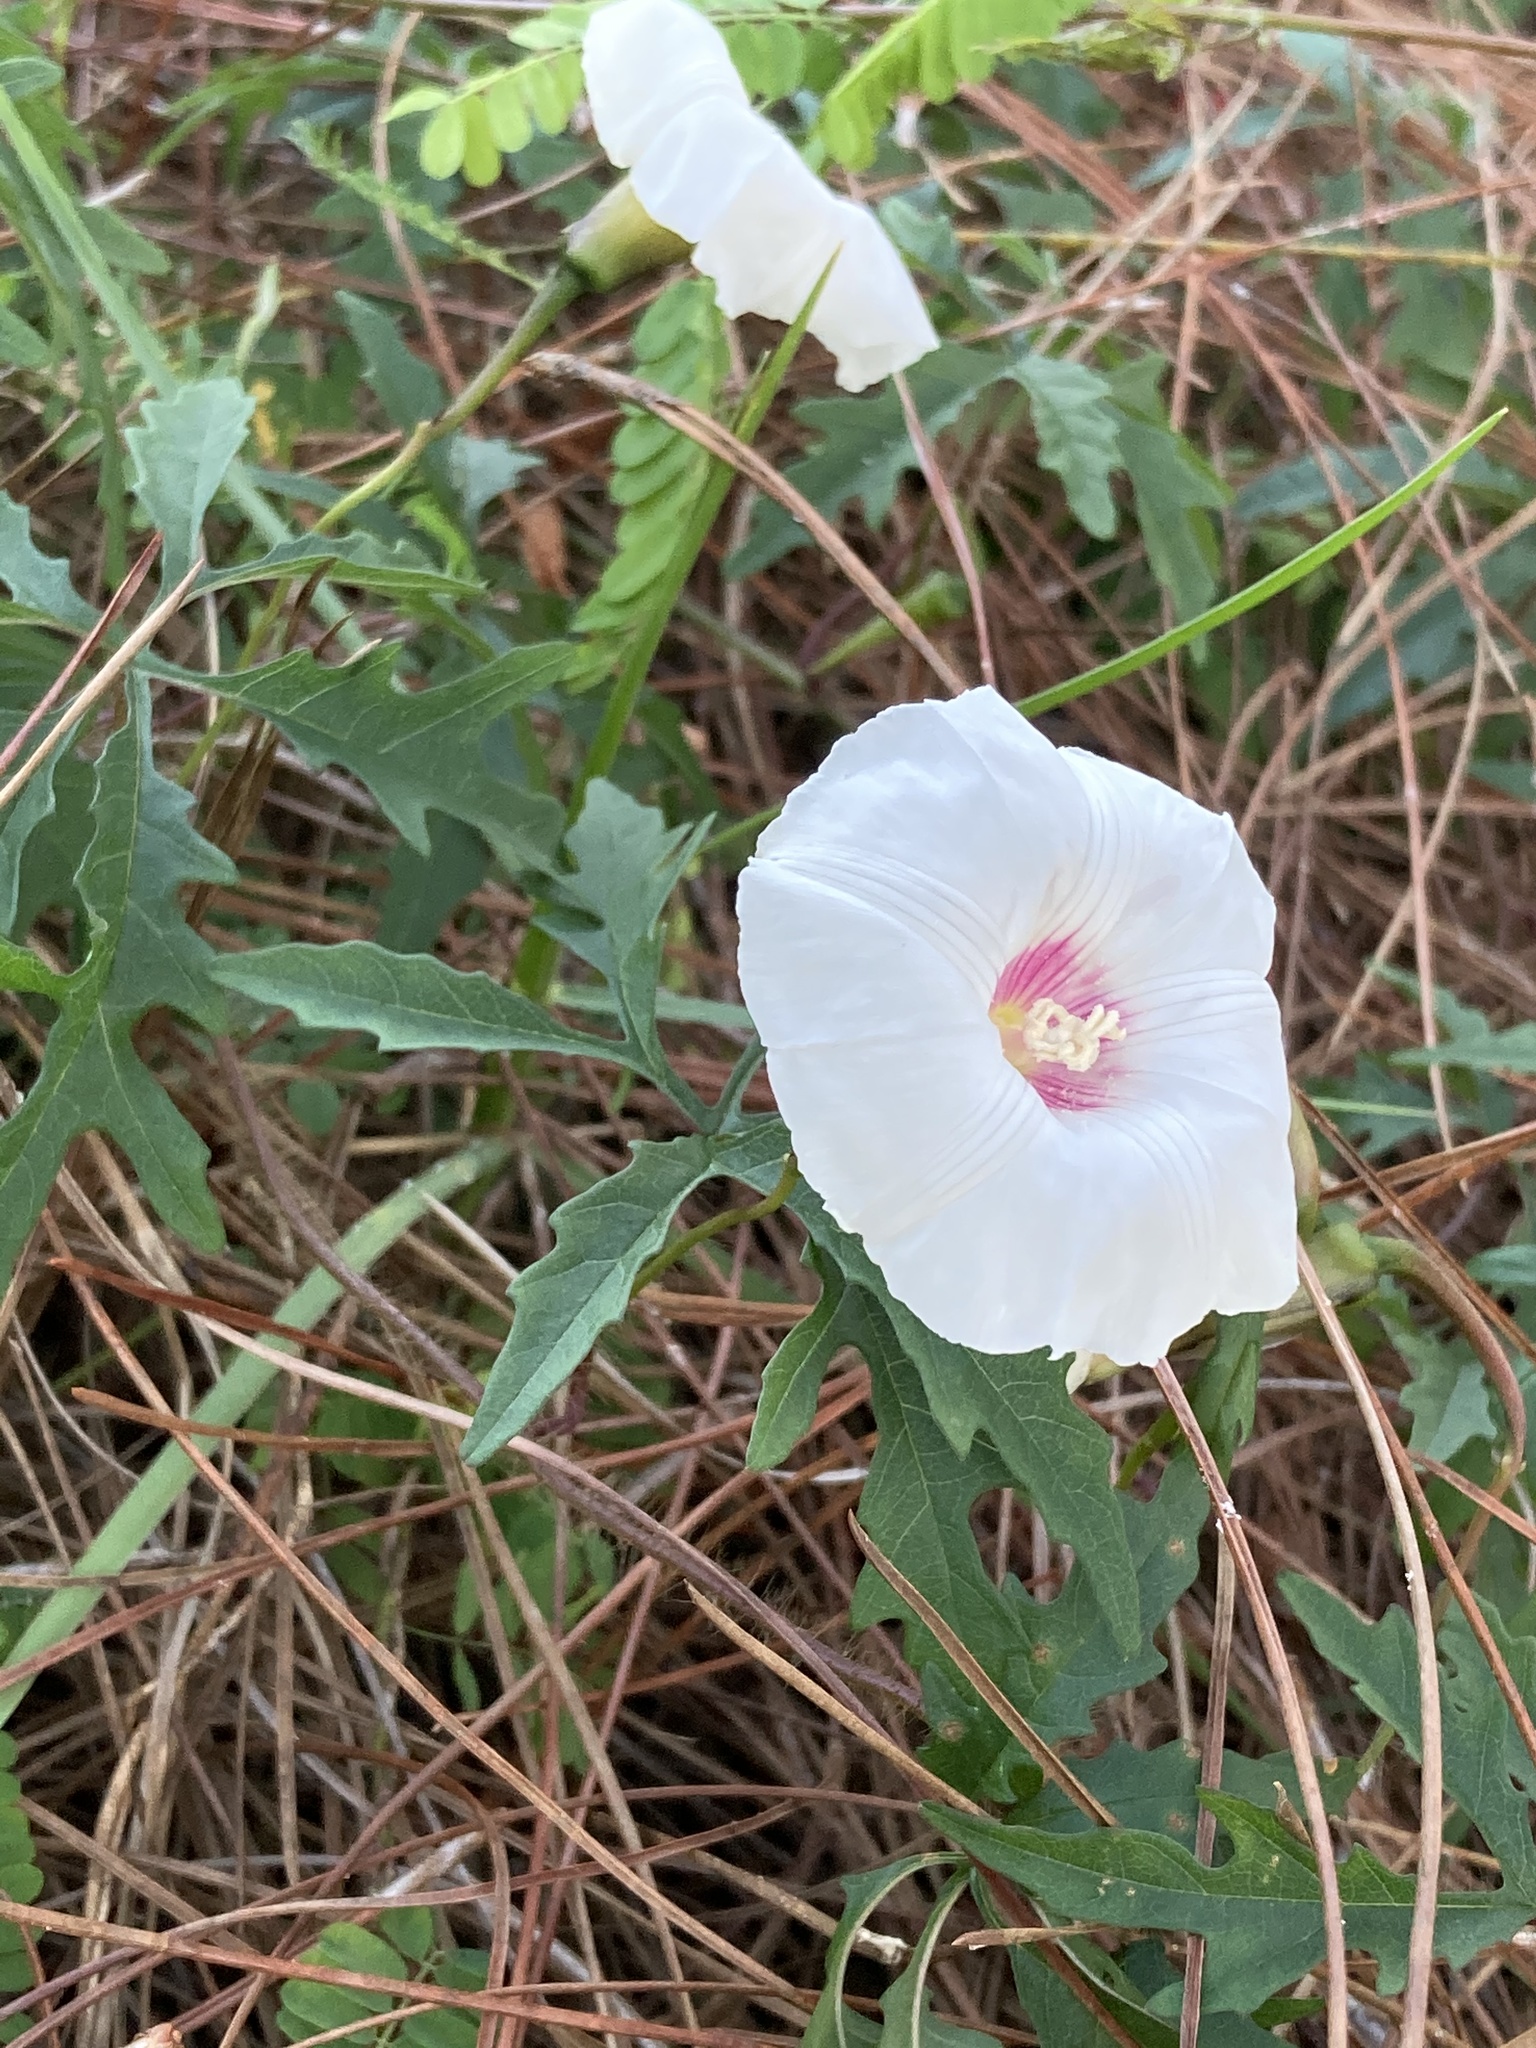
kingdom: Plantae
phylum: Tracheophyta
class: Magnoliopsida
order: Solanales
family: Convolvulaceae
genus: Distimake
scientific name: Distimake dissectus
